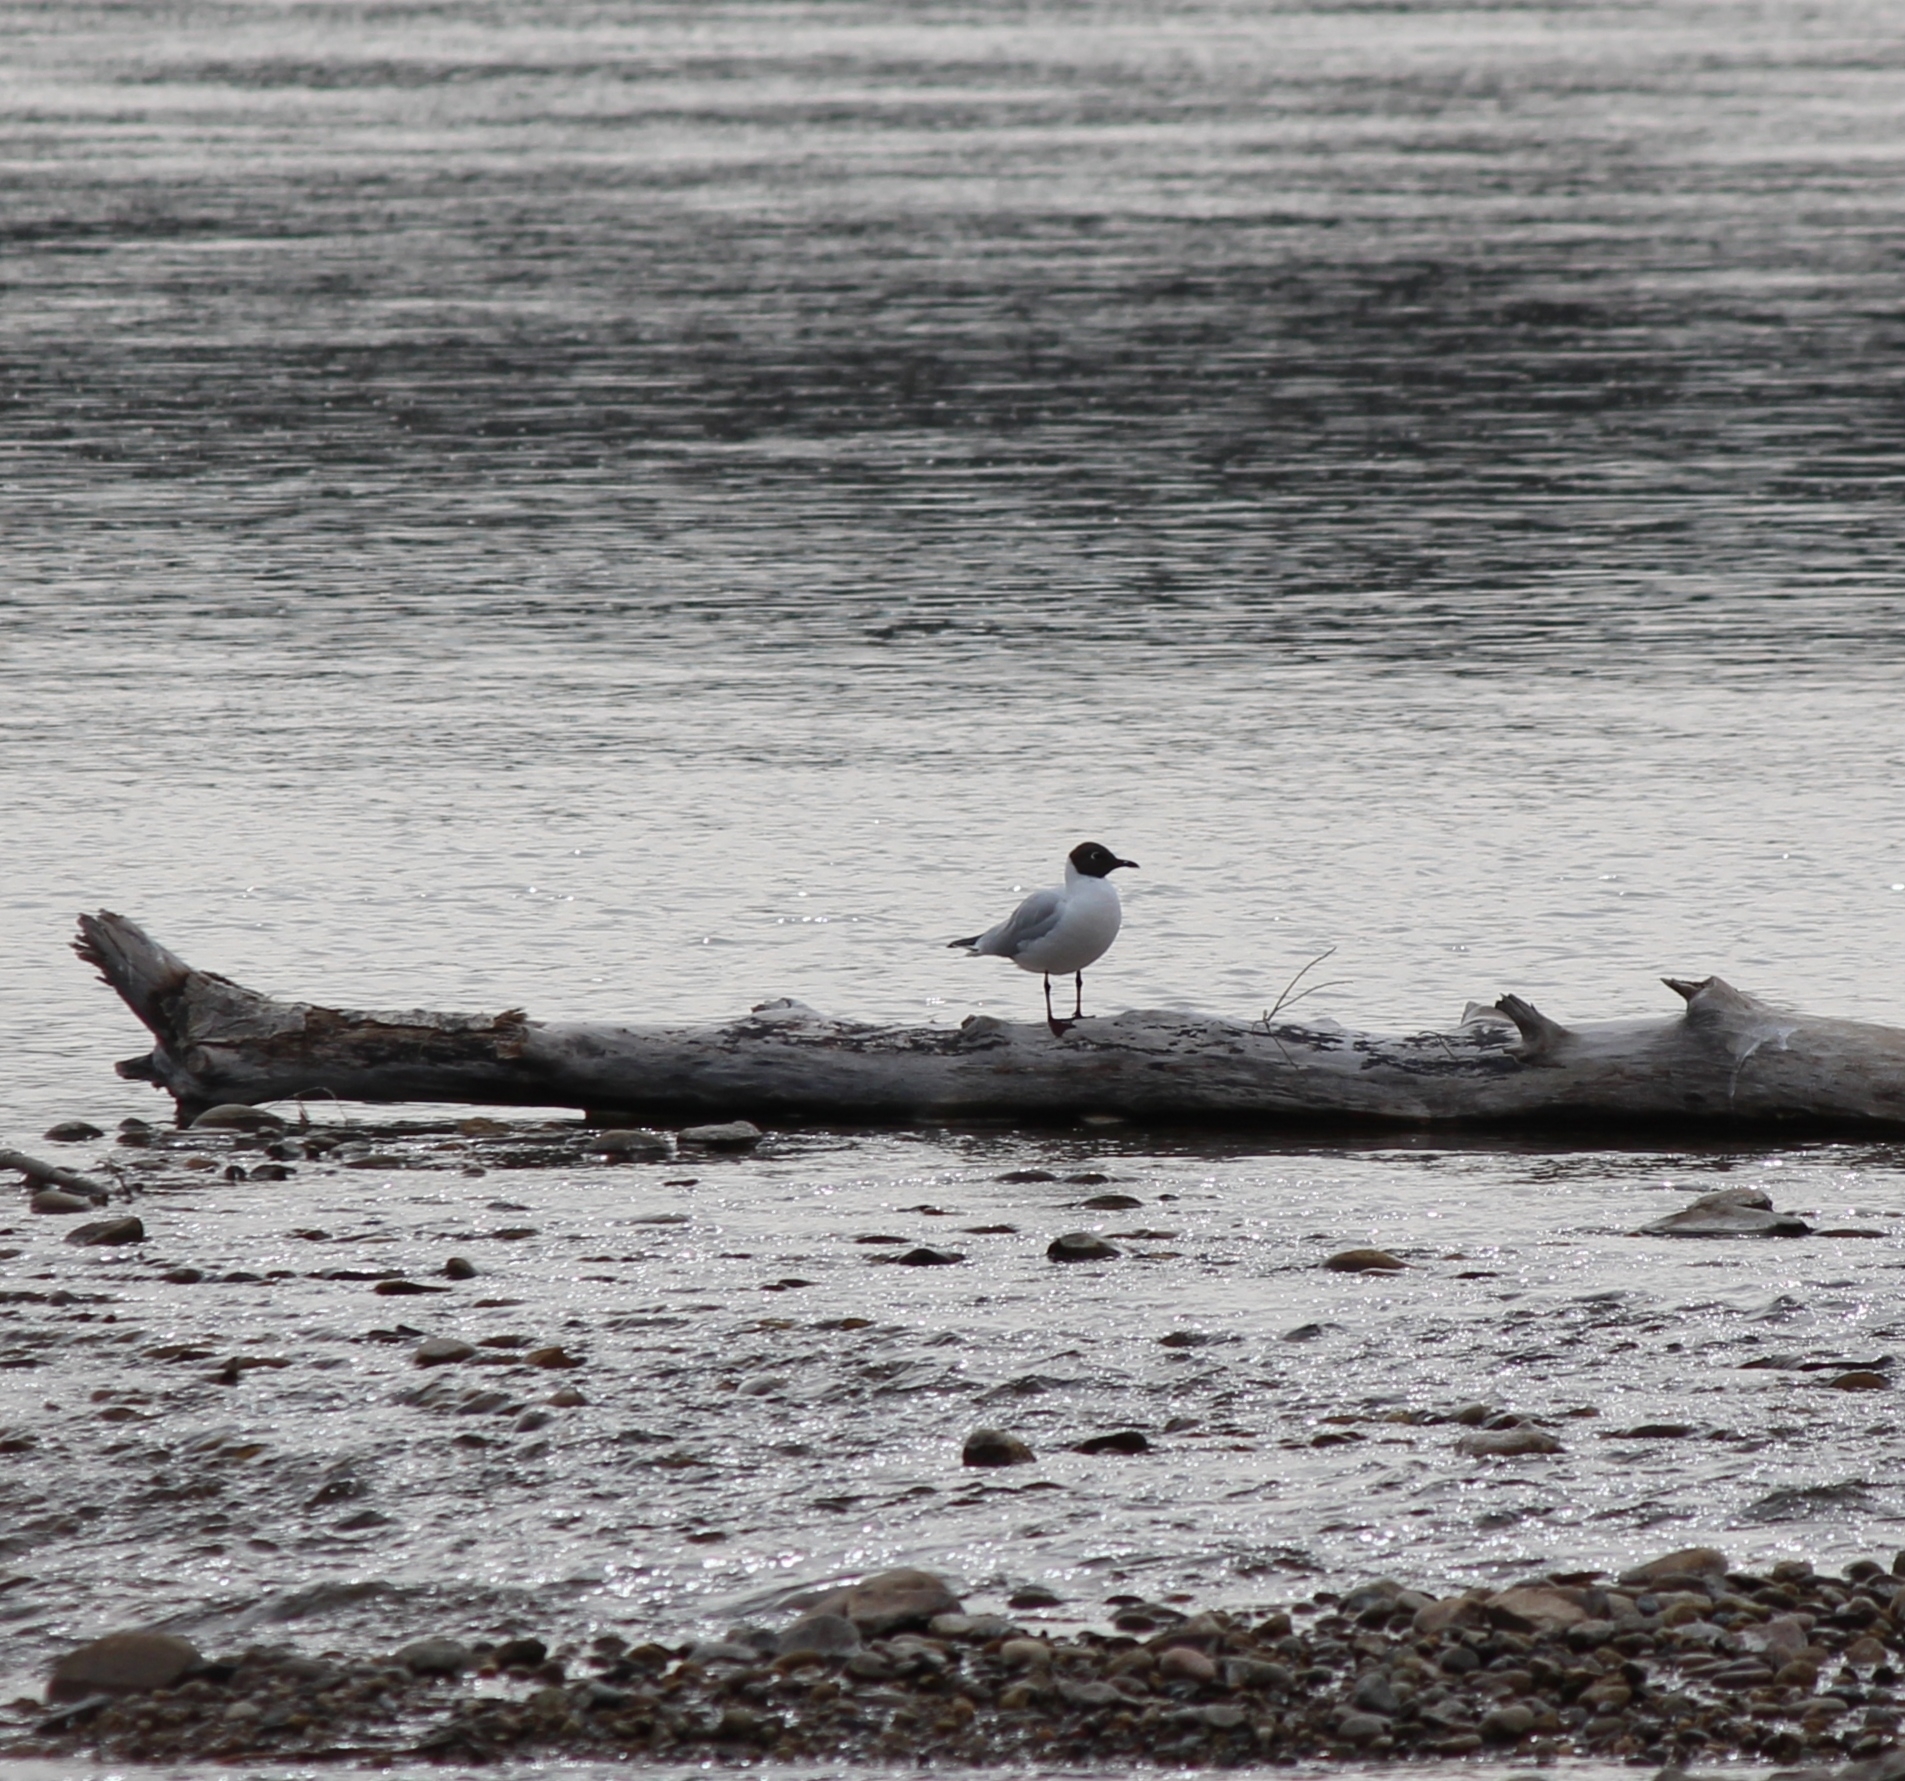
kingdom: Animalia
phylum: Chordata
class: Aves
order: Charadriiformes
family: Laridae
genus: Chroicocephalus
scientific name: Chroicocephalus ridibundus
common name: Black-headed gull
